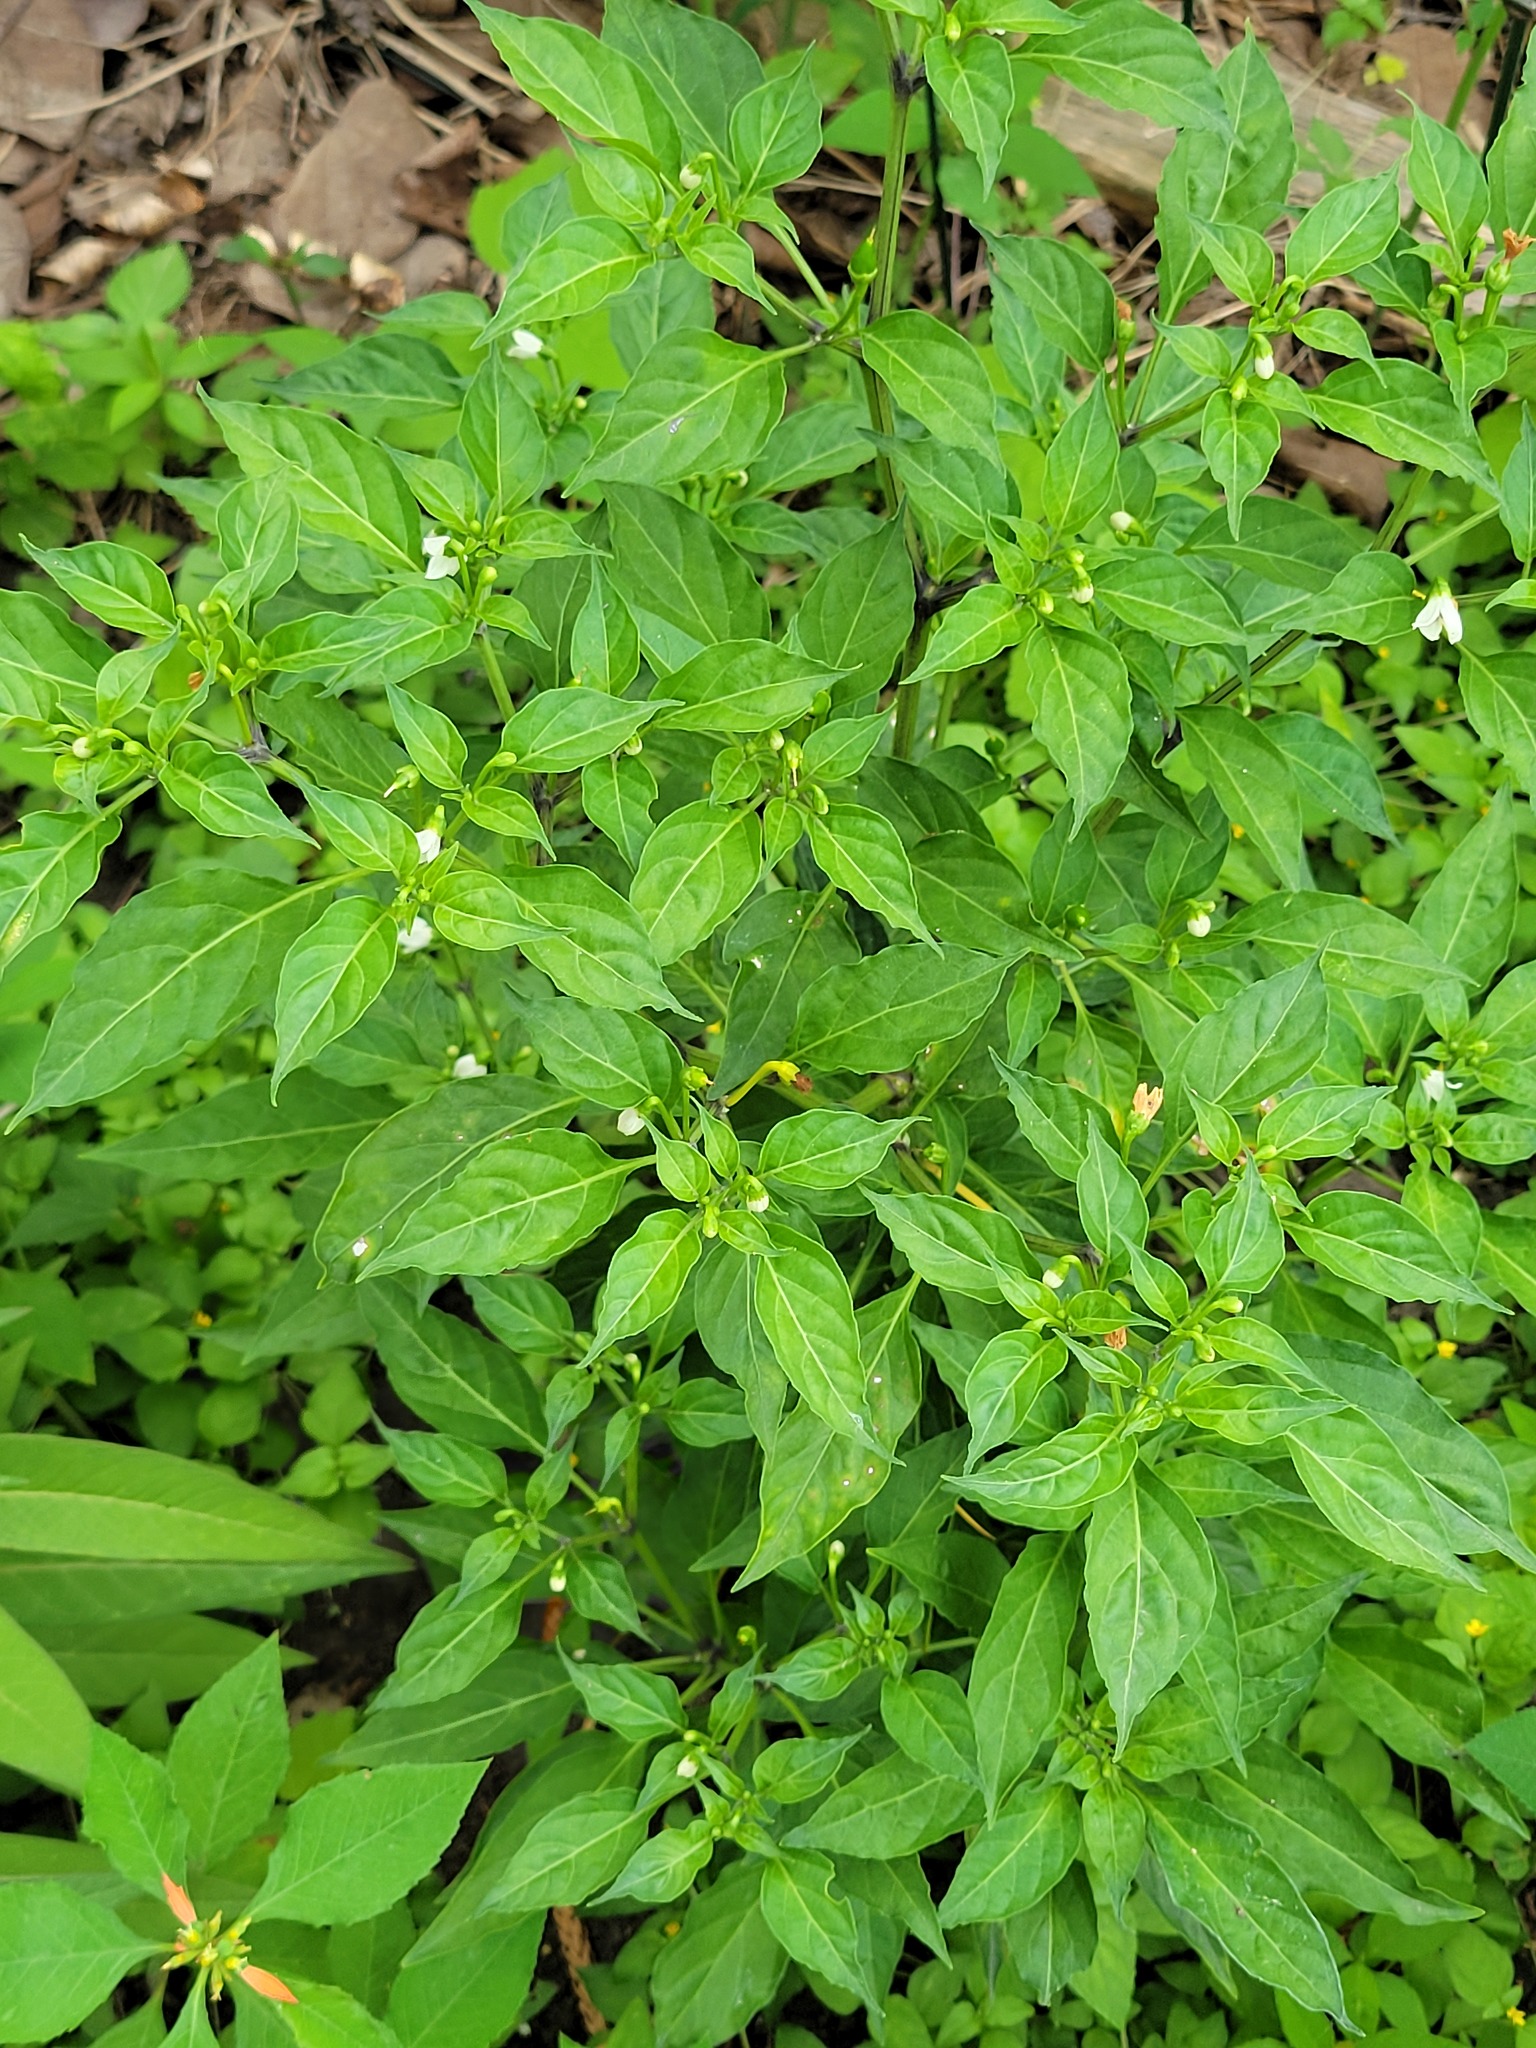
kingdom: Plantae
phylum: Tracheophyta
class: Magnoliopsida
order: Solanales
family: Solanaceae
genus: Capsicum
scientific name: Capsicum annuum
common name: Sweet pepper
